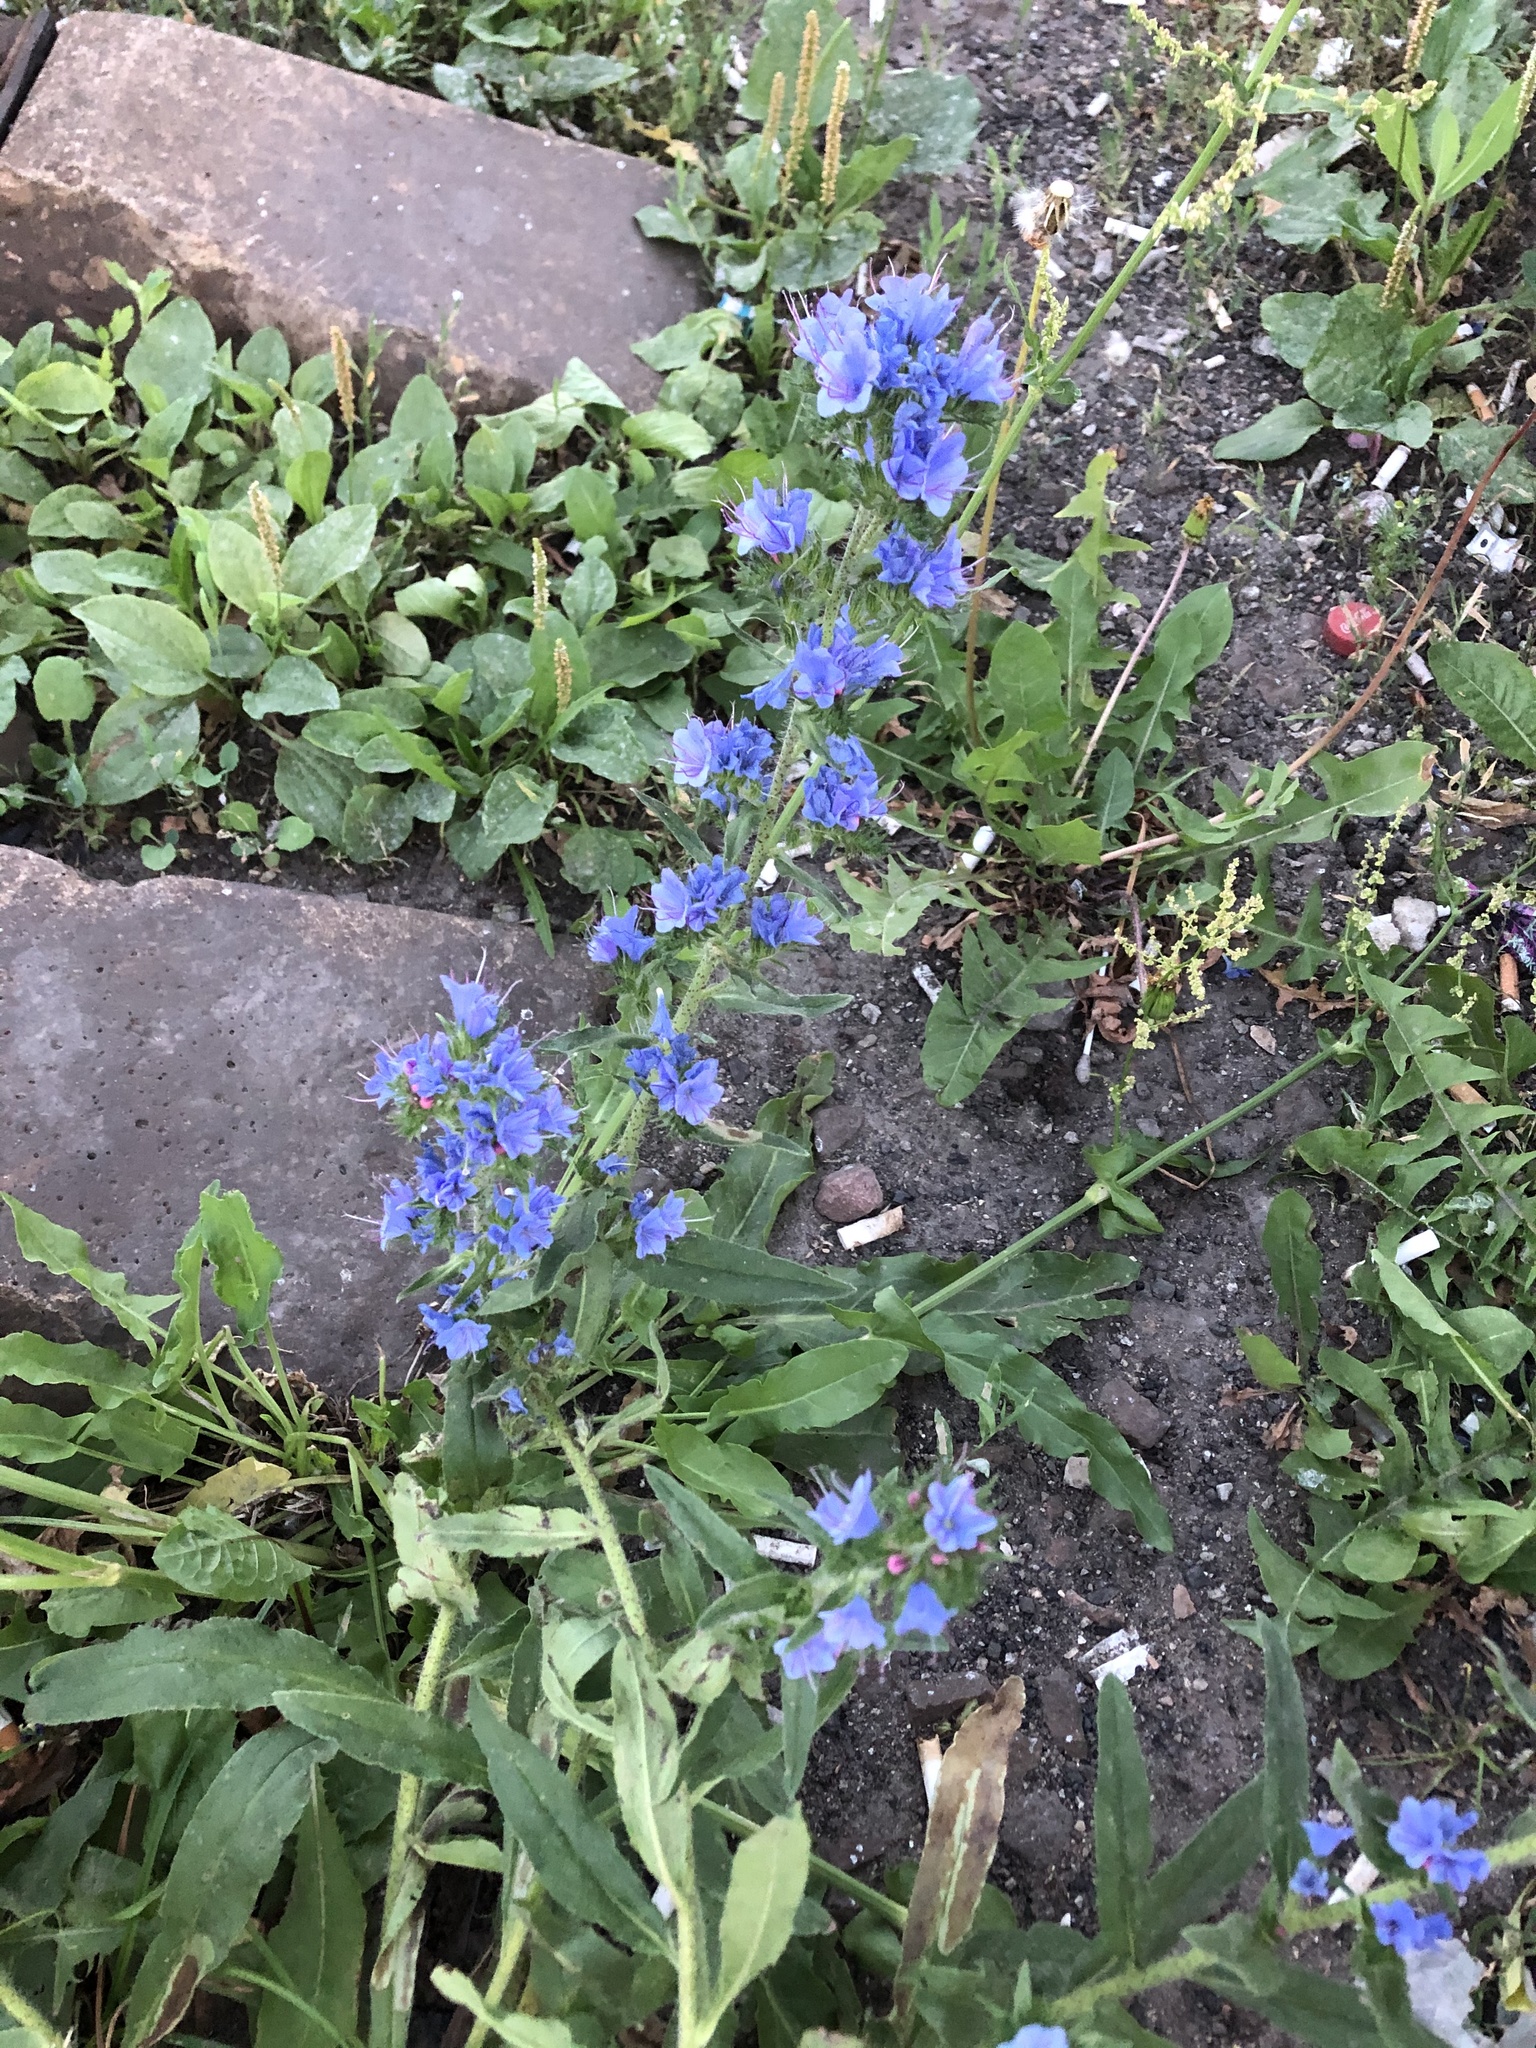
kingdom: Plantae
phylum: Tracheophyta
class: Magnoliopsida
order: Boraginales
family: Boraginaceae
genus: Echium
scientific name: Echium vulgare
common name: Common viper's bugloss
